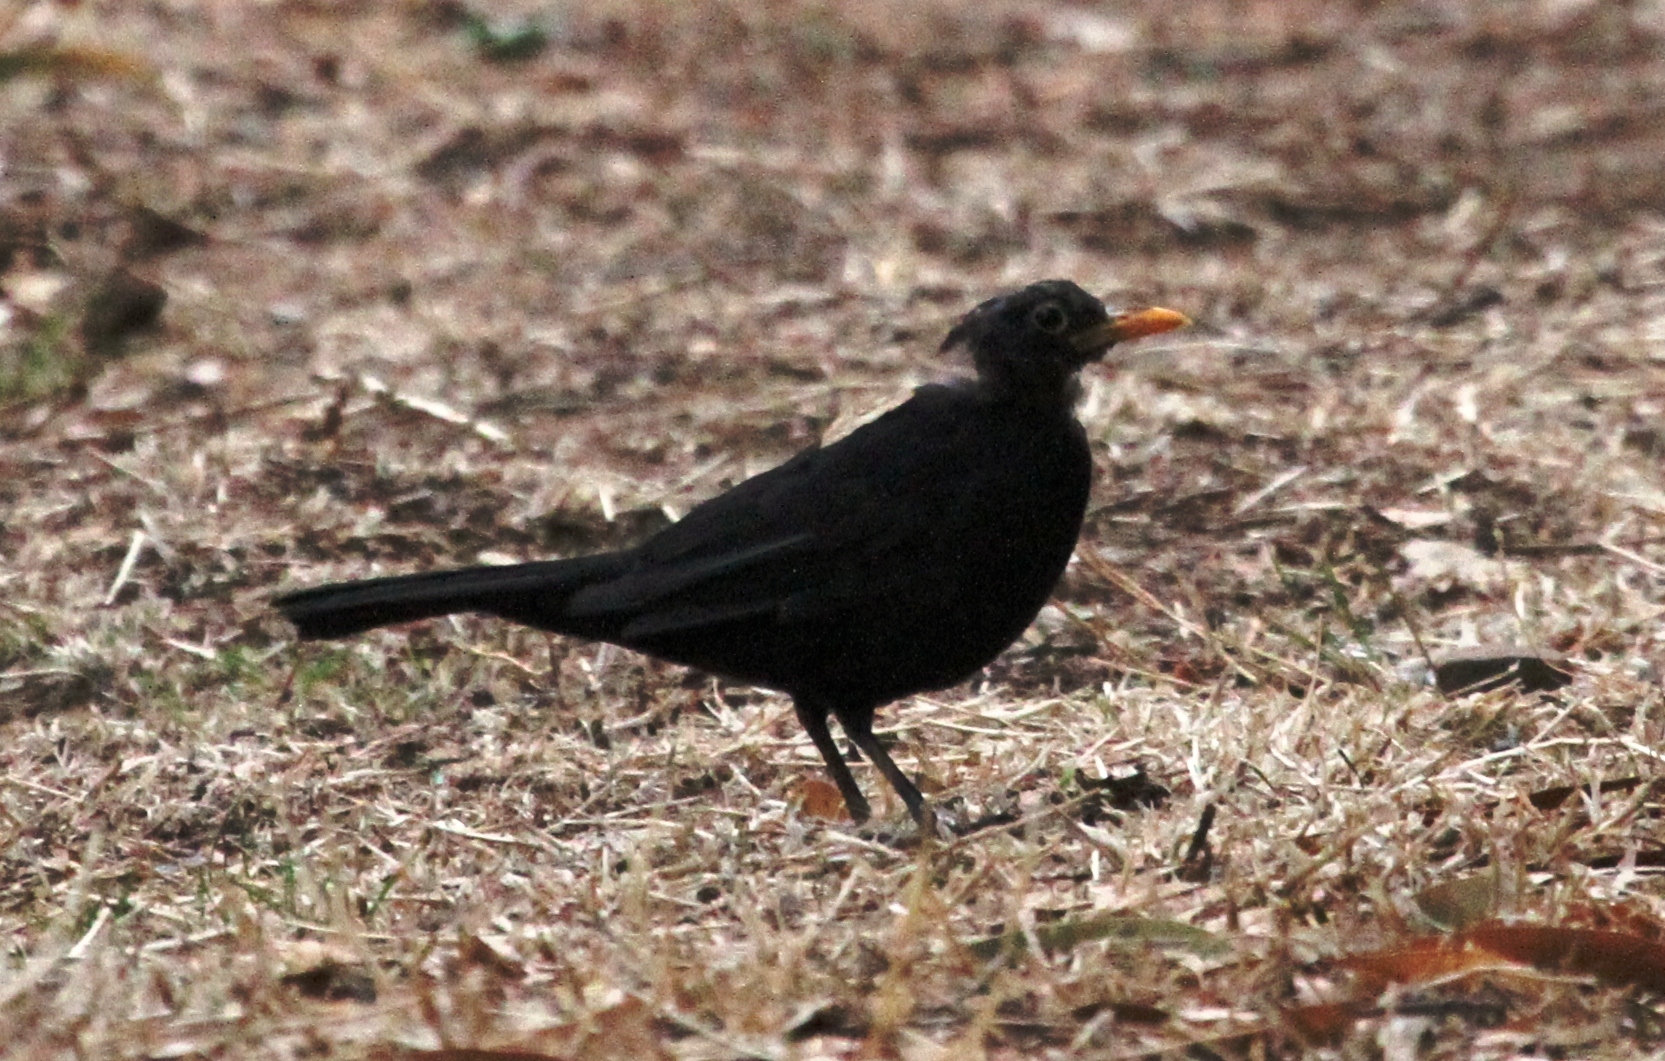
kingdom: Animalia
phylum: Chordata
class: Aves
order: Passeriformes
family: Turdidae
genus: Turdus
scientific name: Turdus merula
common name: Common blackbird
